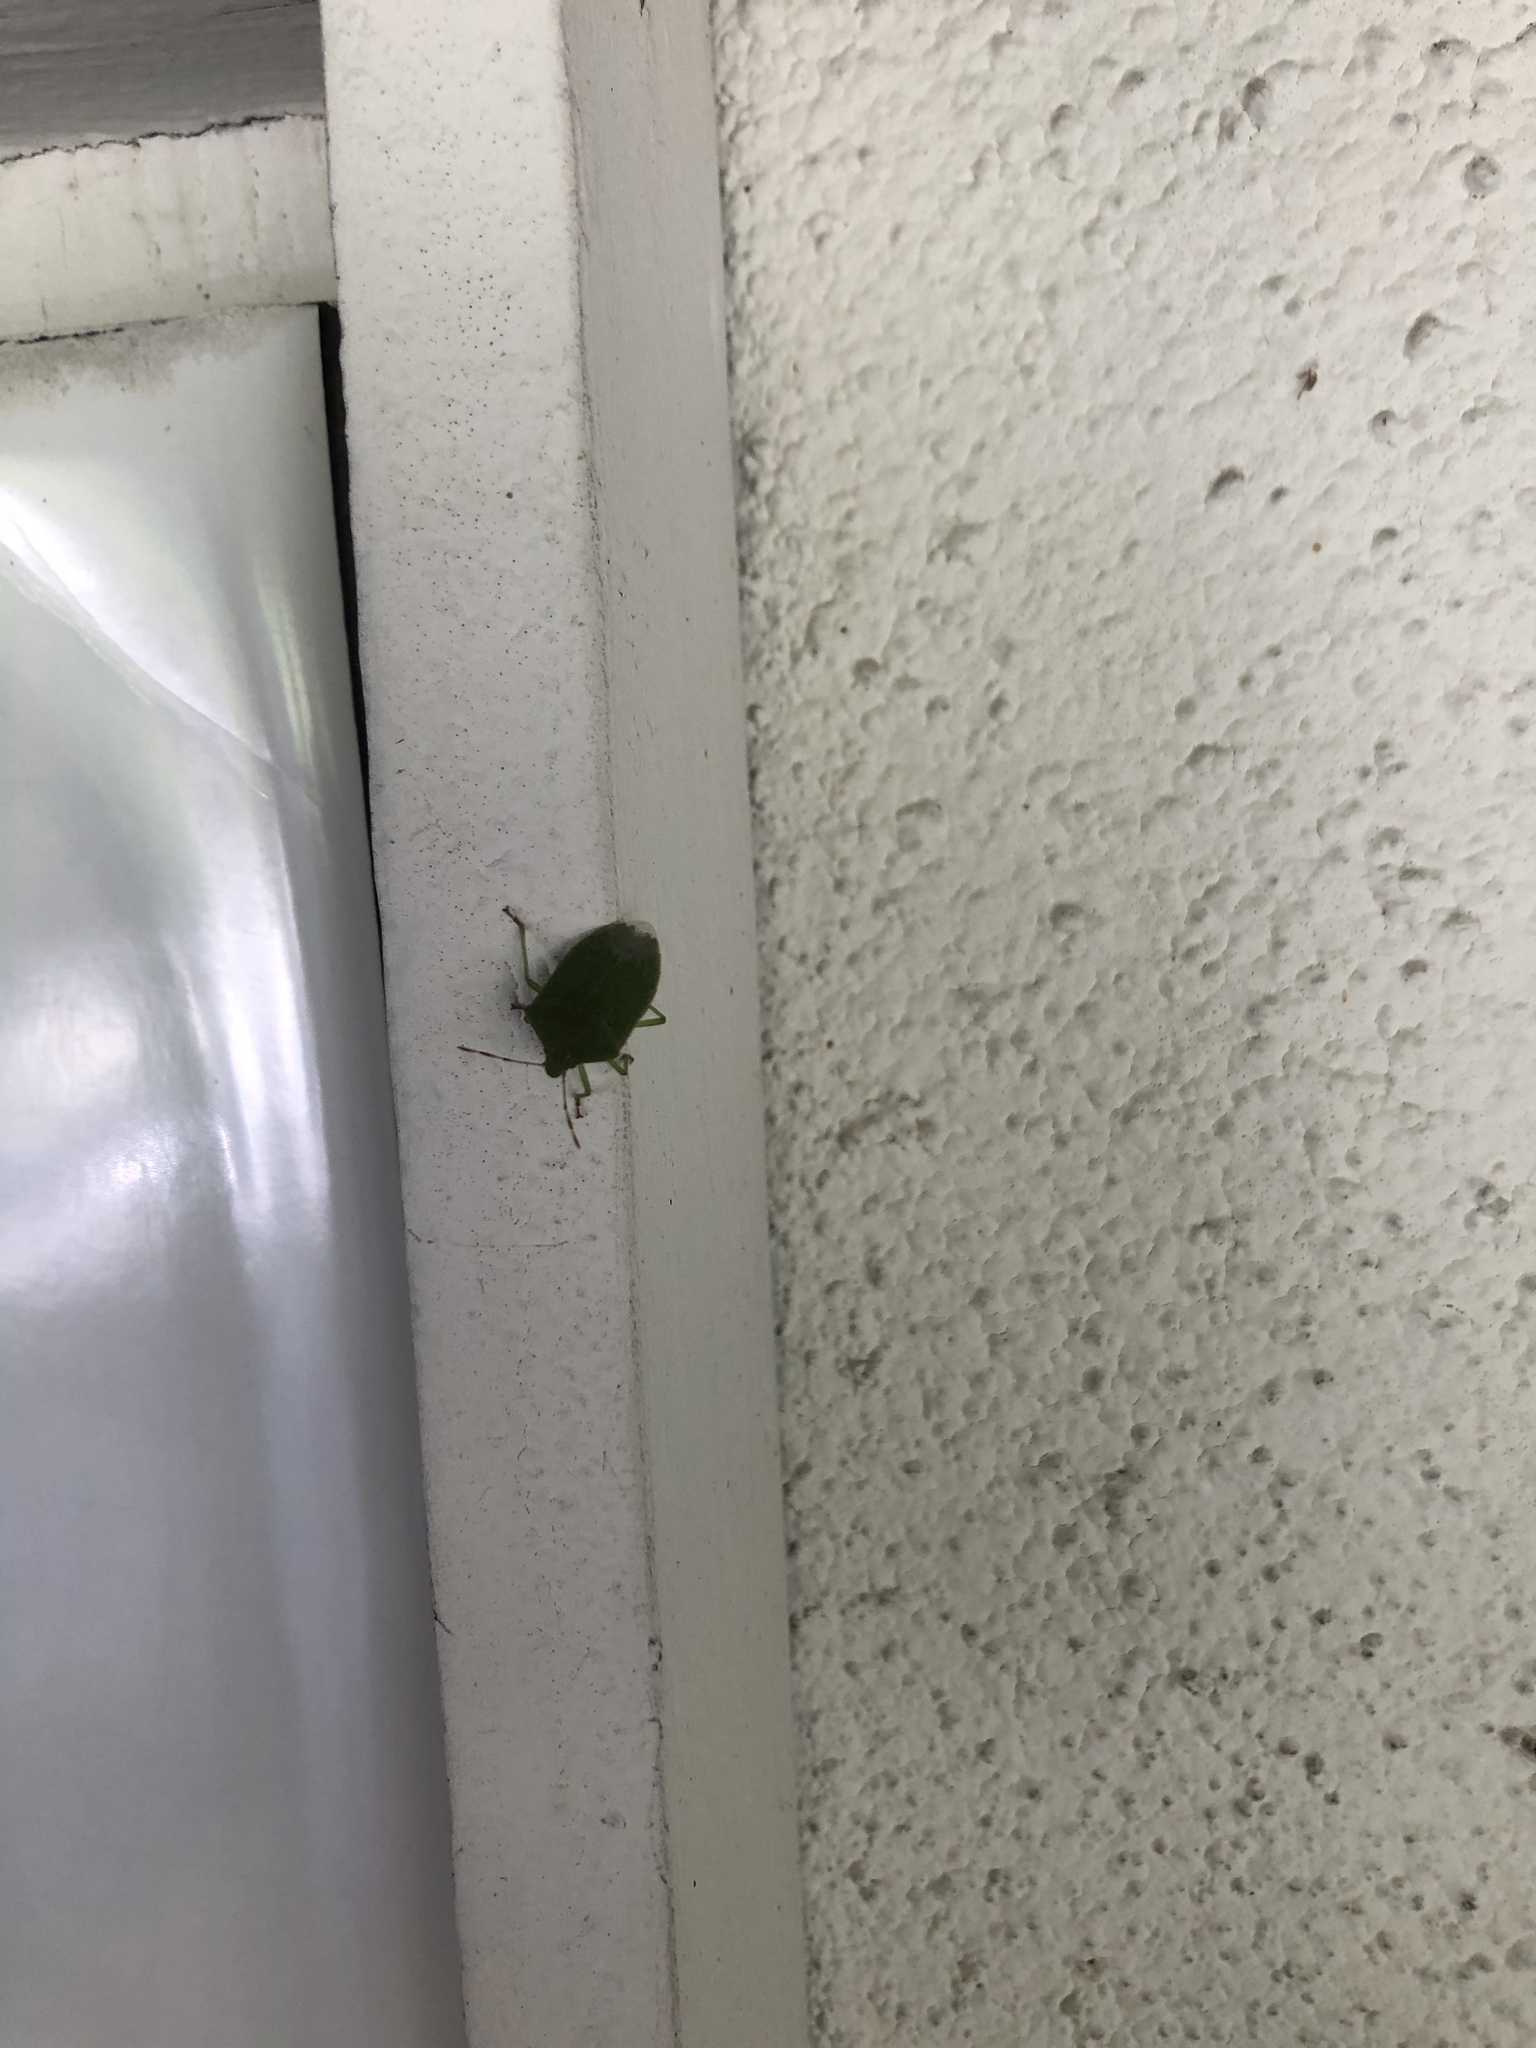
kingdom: Animalia
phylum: Arthropoda
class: Insecta
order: Hemiptera
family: Pentatomidae
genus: Nezara
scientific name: Nezara viridula
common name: Southern green stink bug
